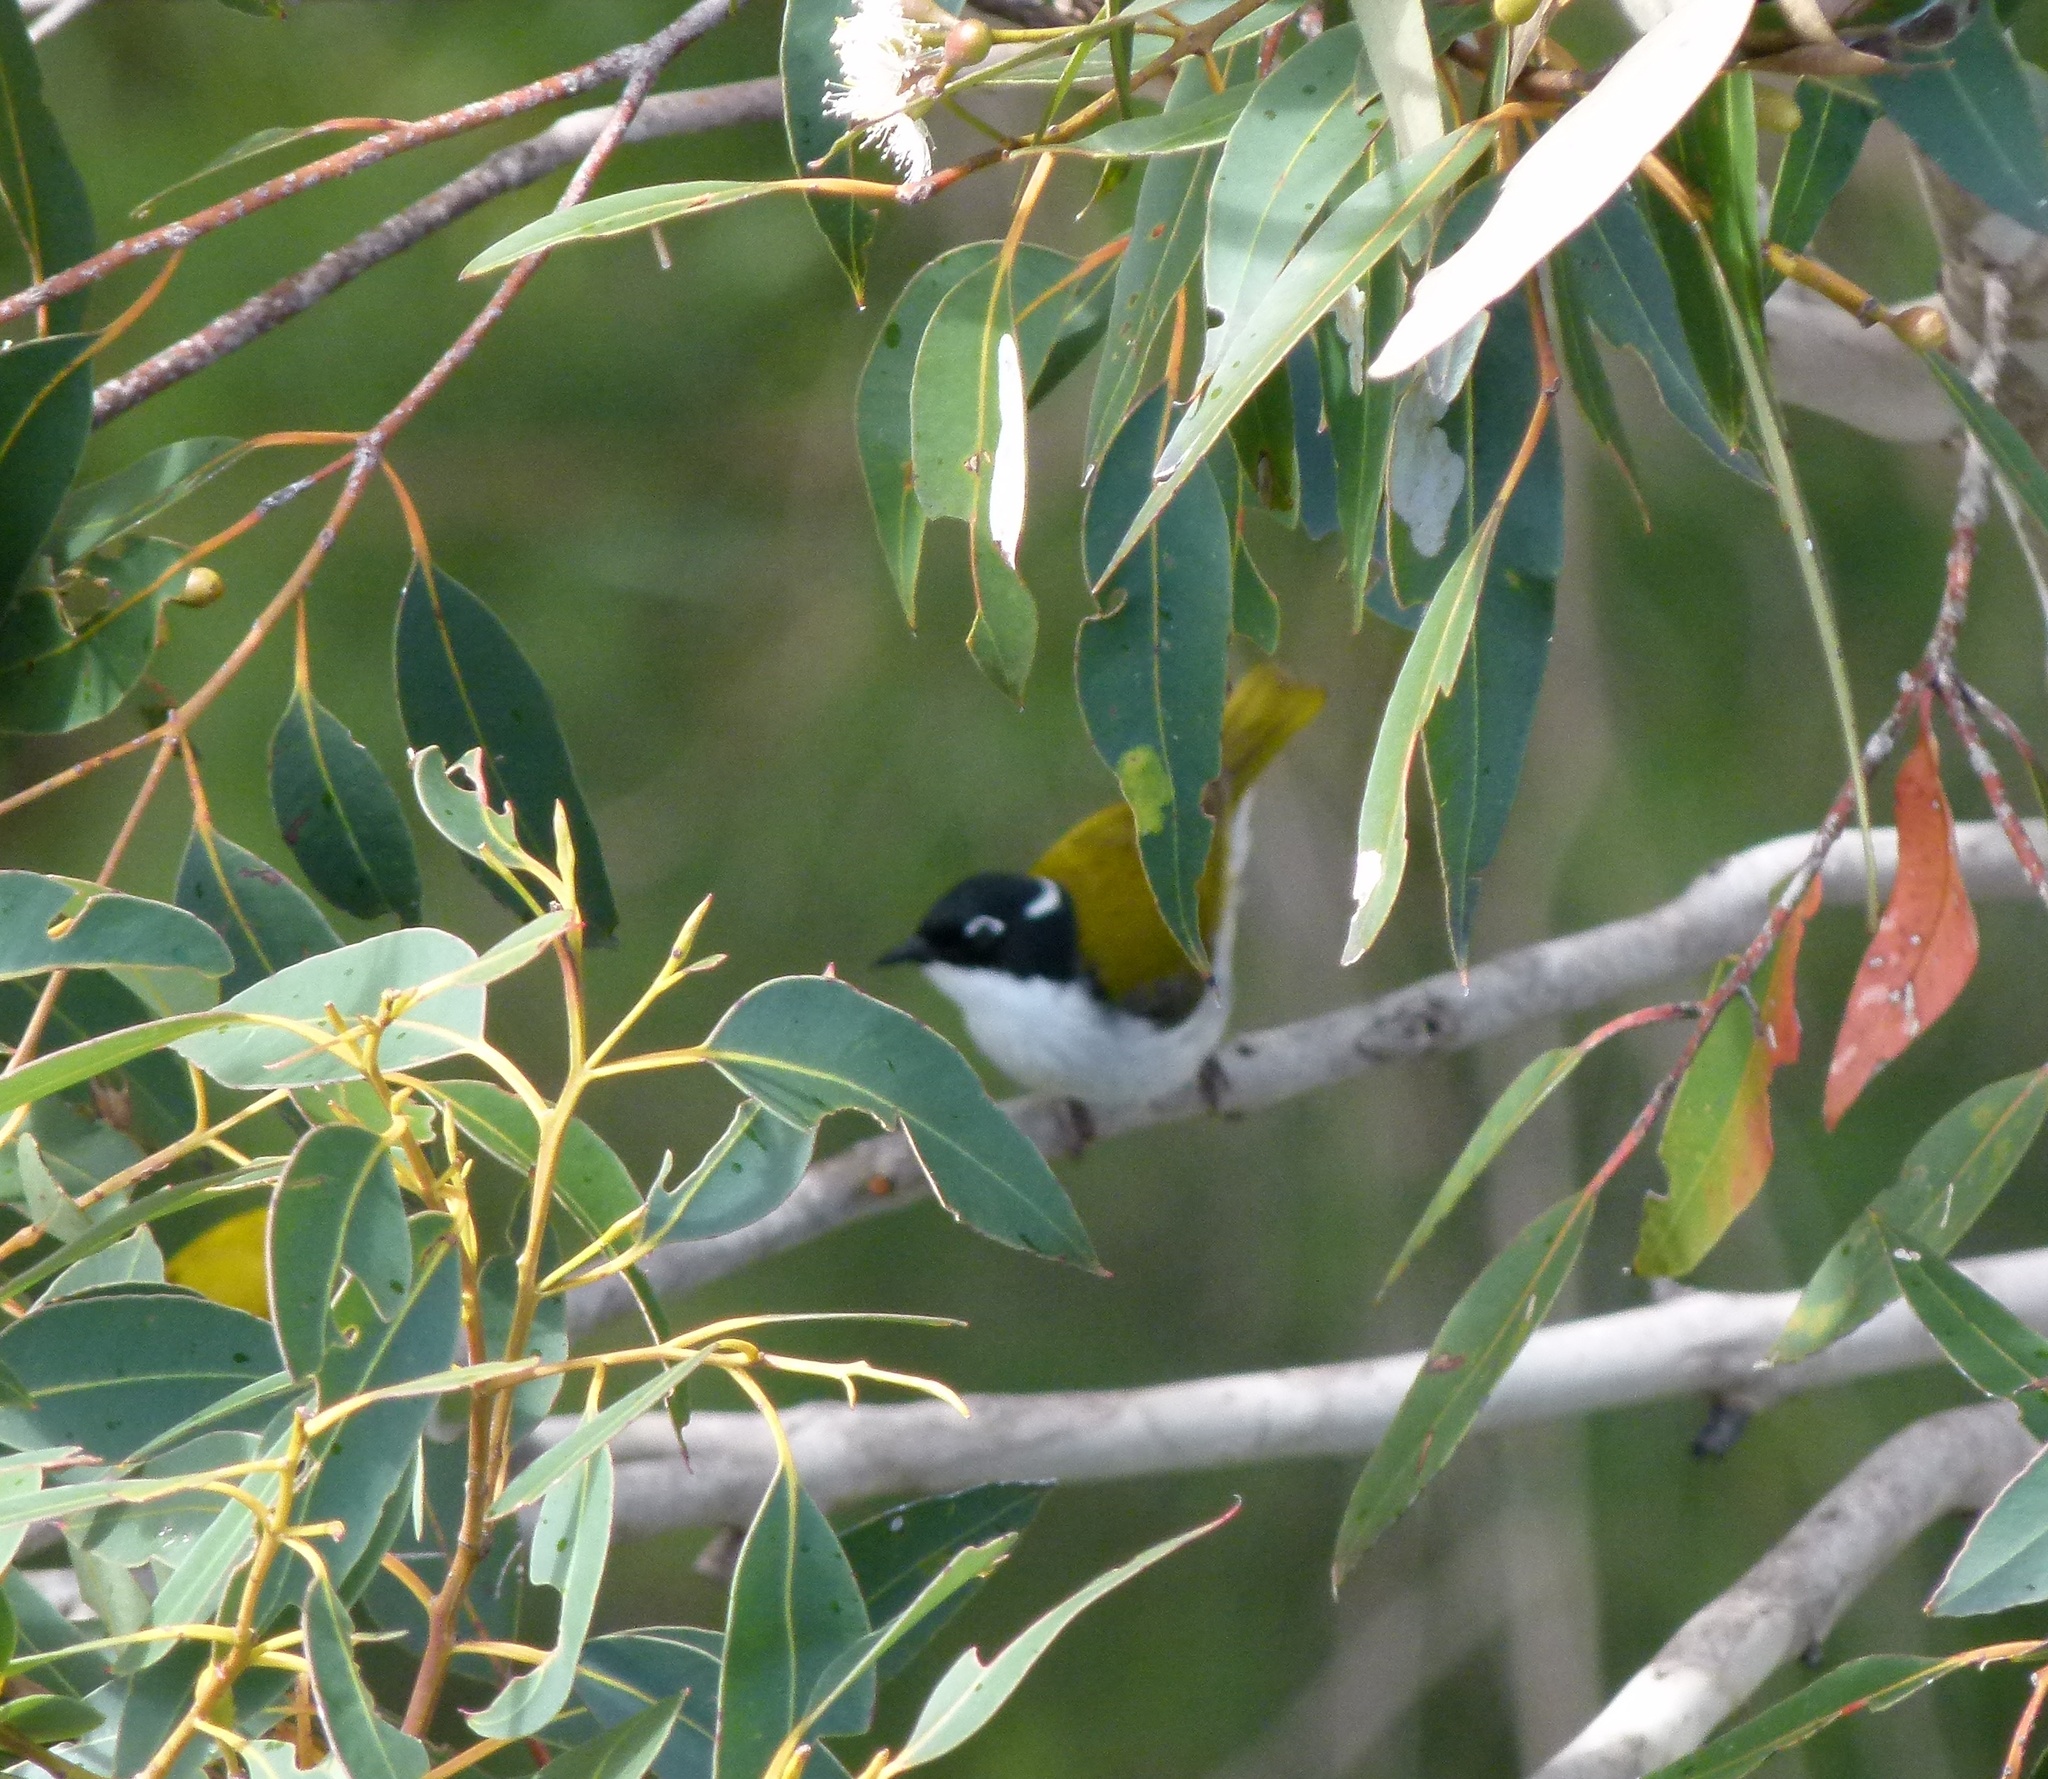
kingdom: Animalia
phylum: Chordata
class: Aves
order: Passeriformes
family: Meliphagidae
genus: Melithreptus
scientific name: Melithreptus chloropsis
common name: Gilbert's honeyeater
